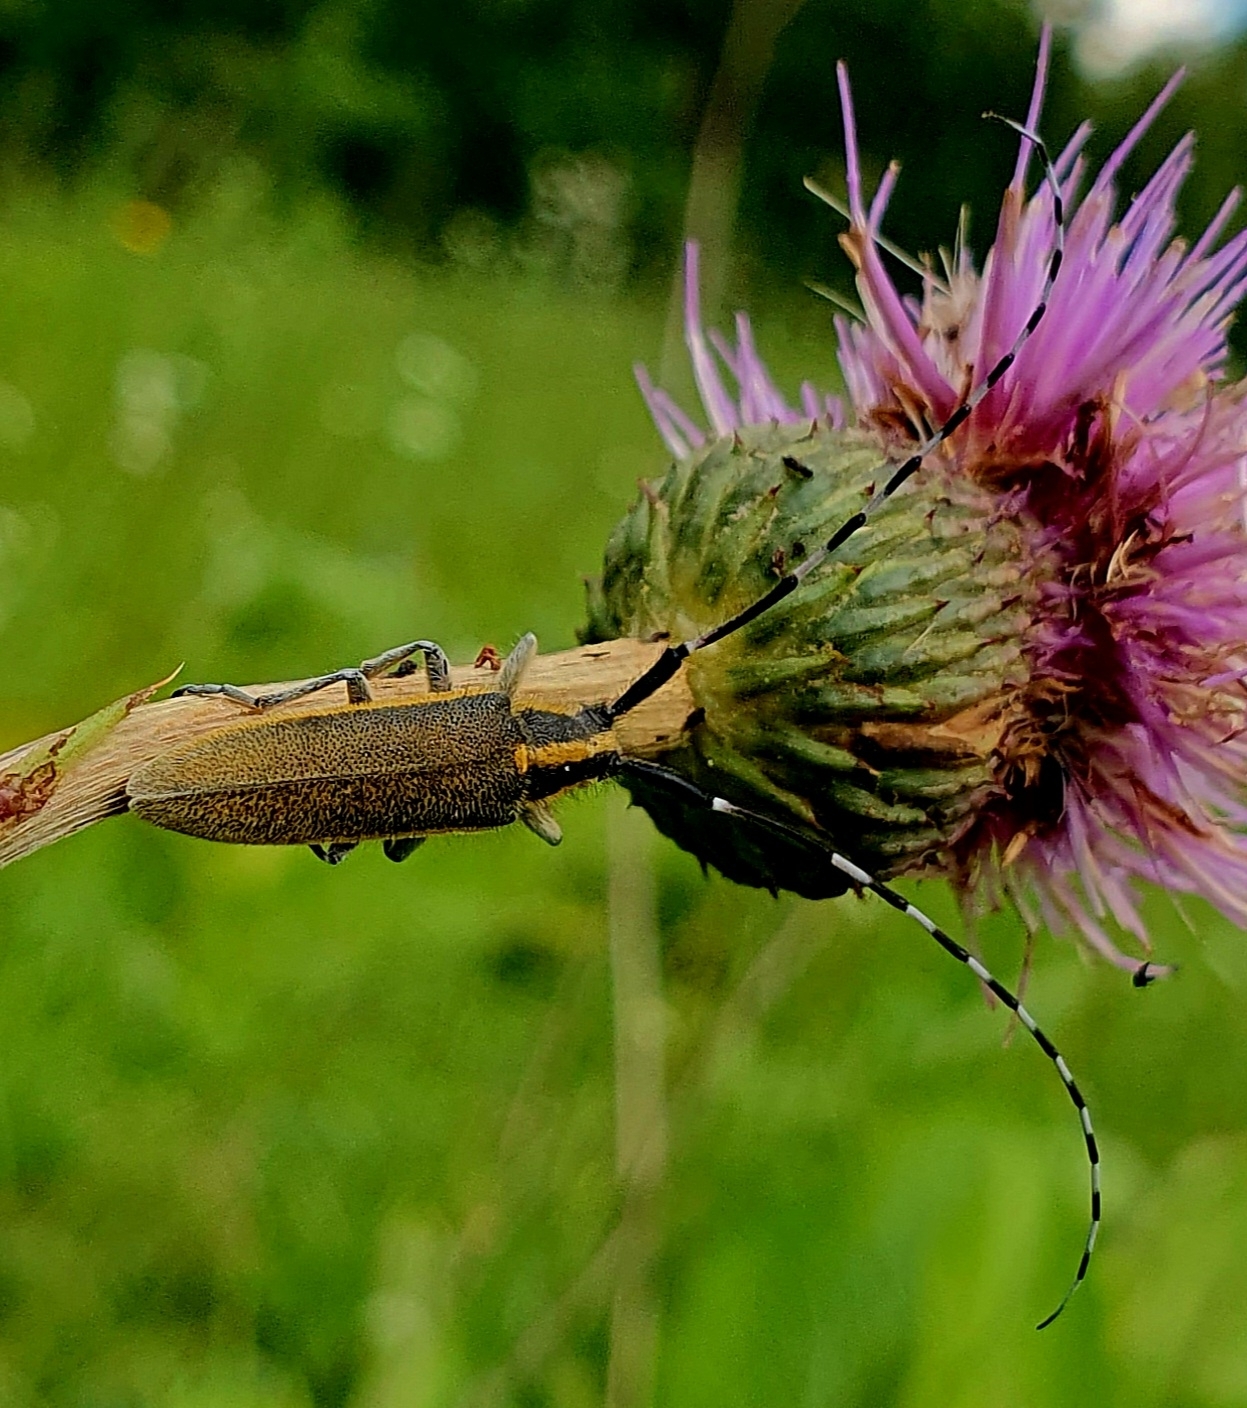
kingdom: Animalia
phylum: Arthropoda
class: Insecta
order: Coleoptera
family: Cerambycidae
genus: Agapanthia
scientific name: Agapanthia cynarae
